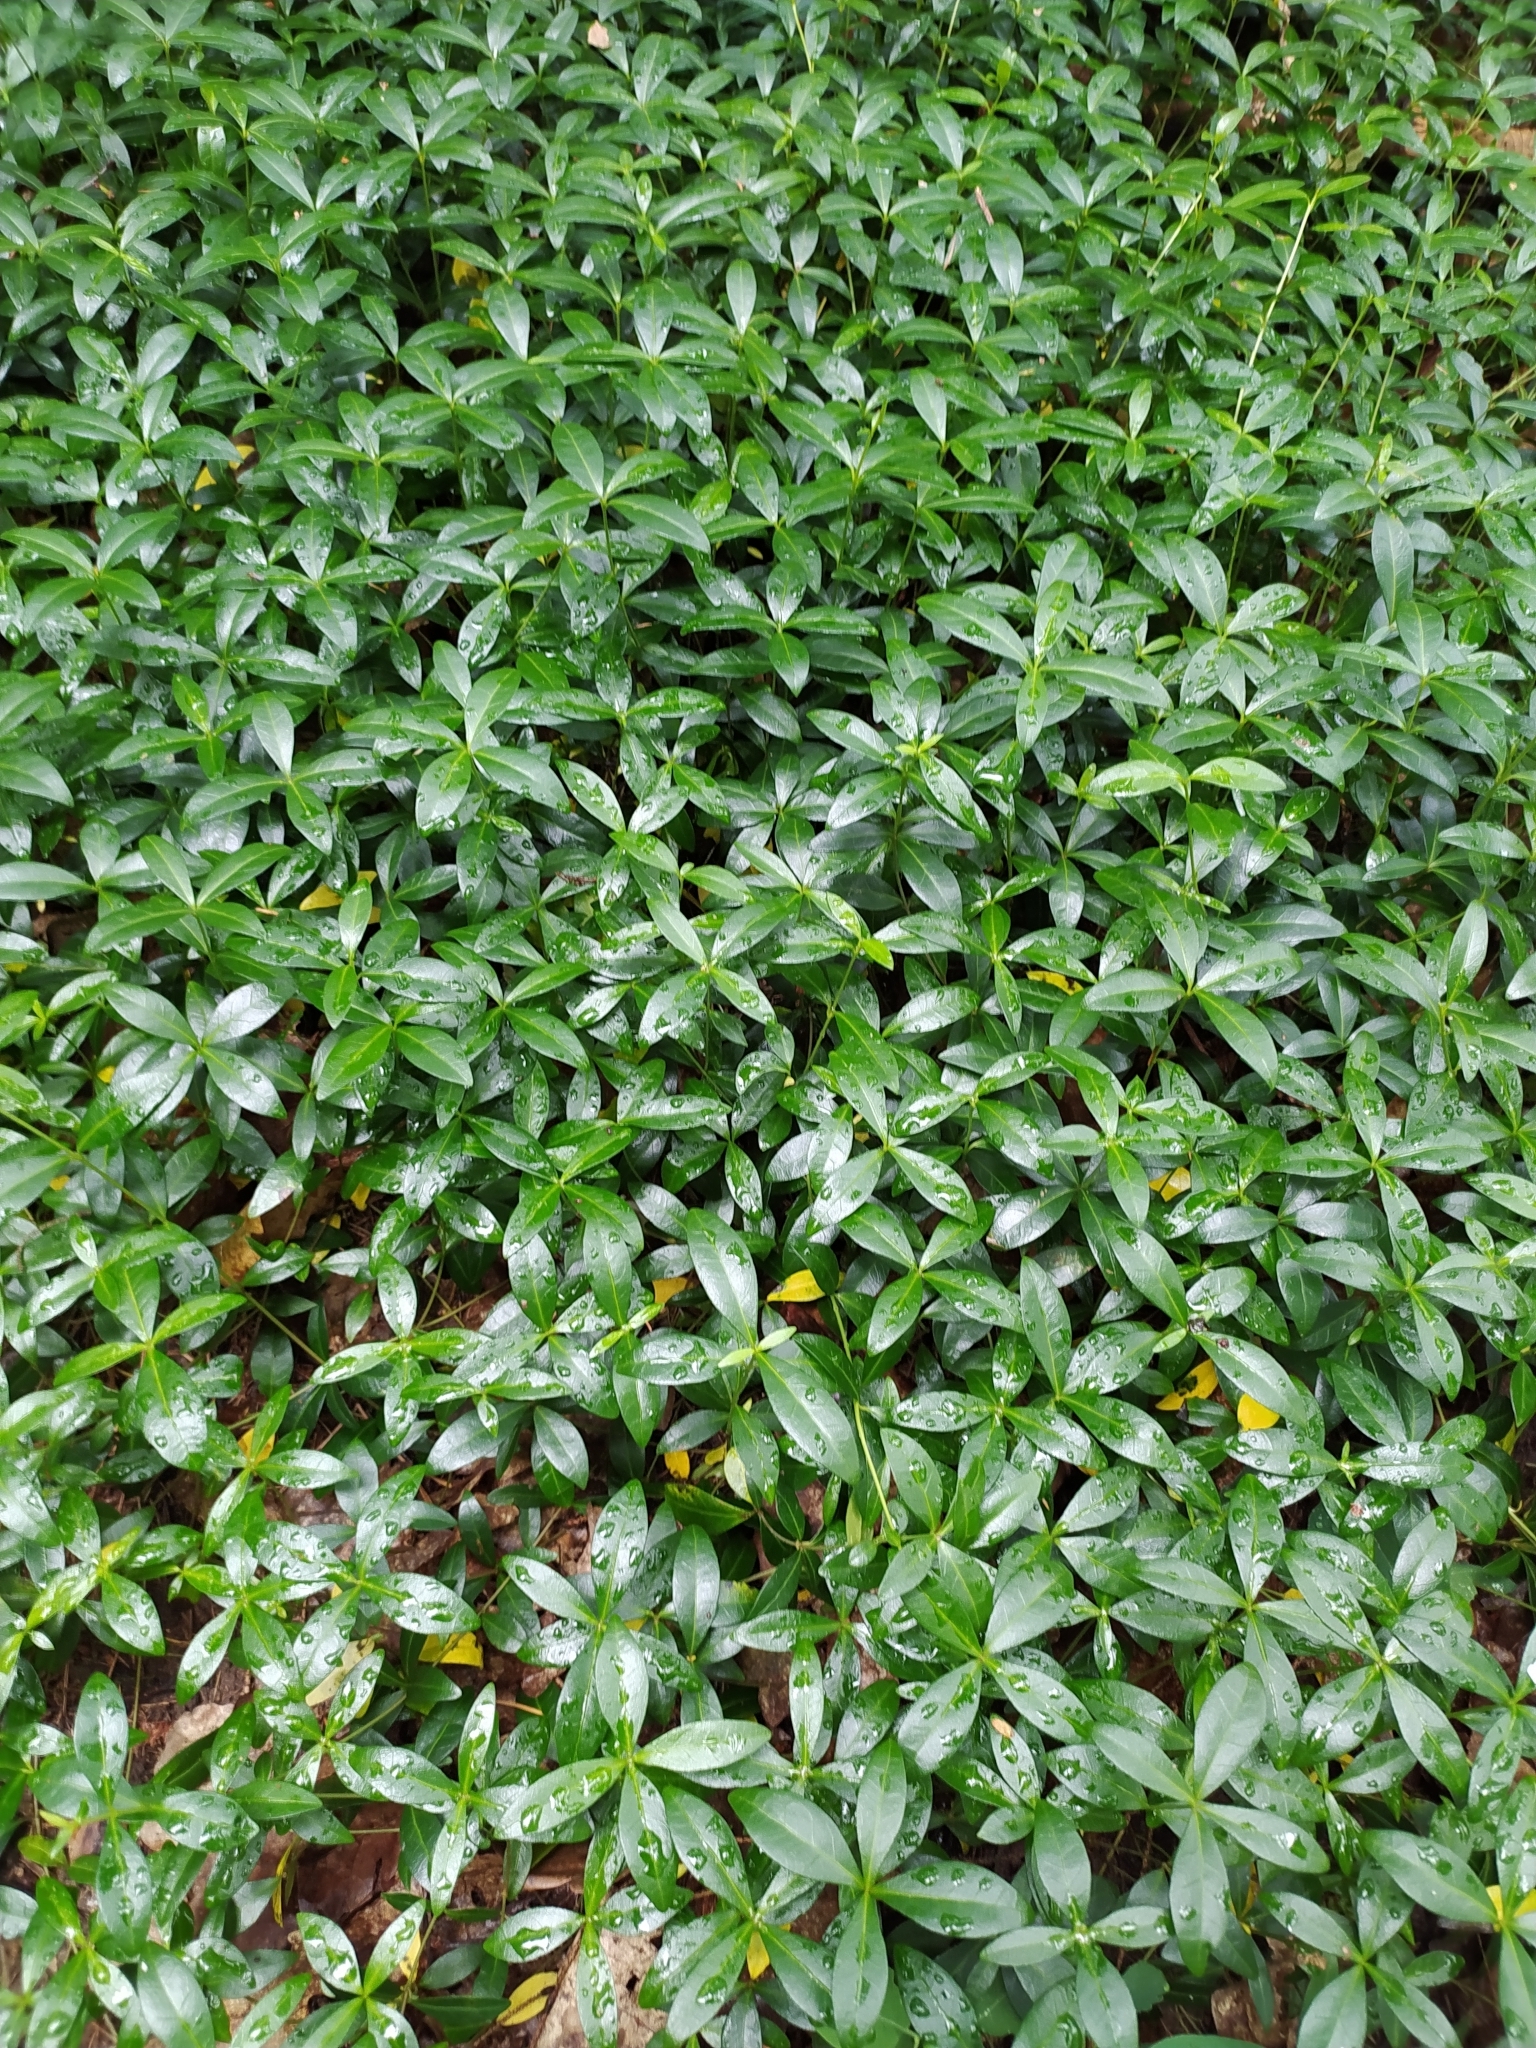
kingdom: Plantae
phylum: Tracheophyta
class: Magnoliopsida
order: Gentianales
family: Apocynaceae
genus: Vinca
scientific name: Vinca minor
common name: Lesser periwinkle
